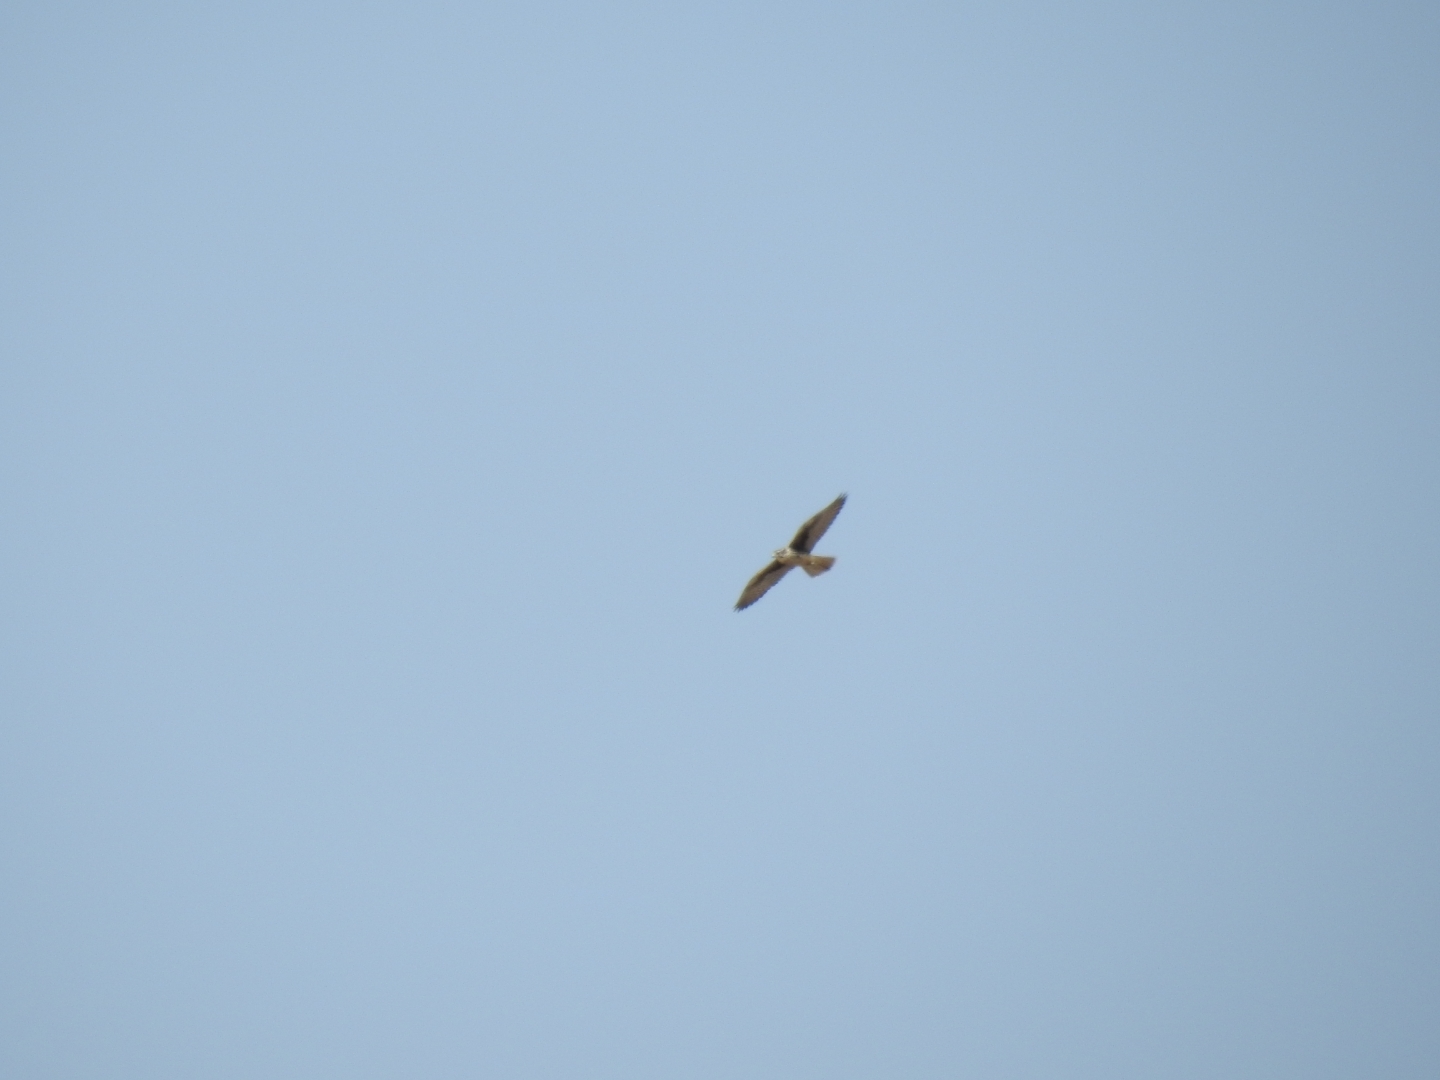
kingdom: Animalia
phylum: Chordata
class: Aves
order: Falconiformes
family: Falconidae
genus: Falco
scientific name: Falco mexicanus
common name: Prairie falcon
